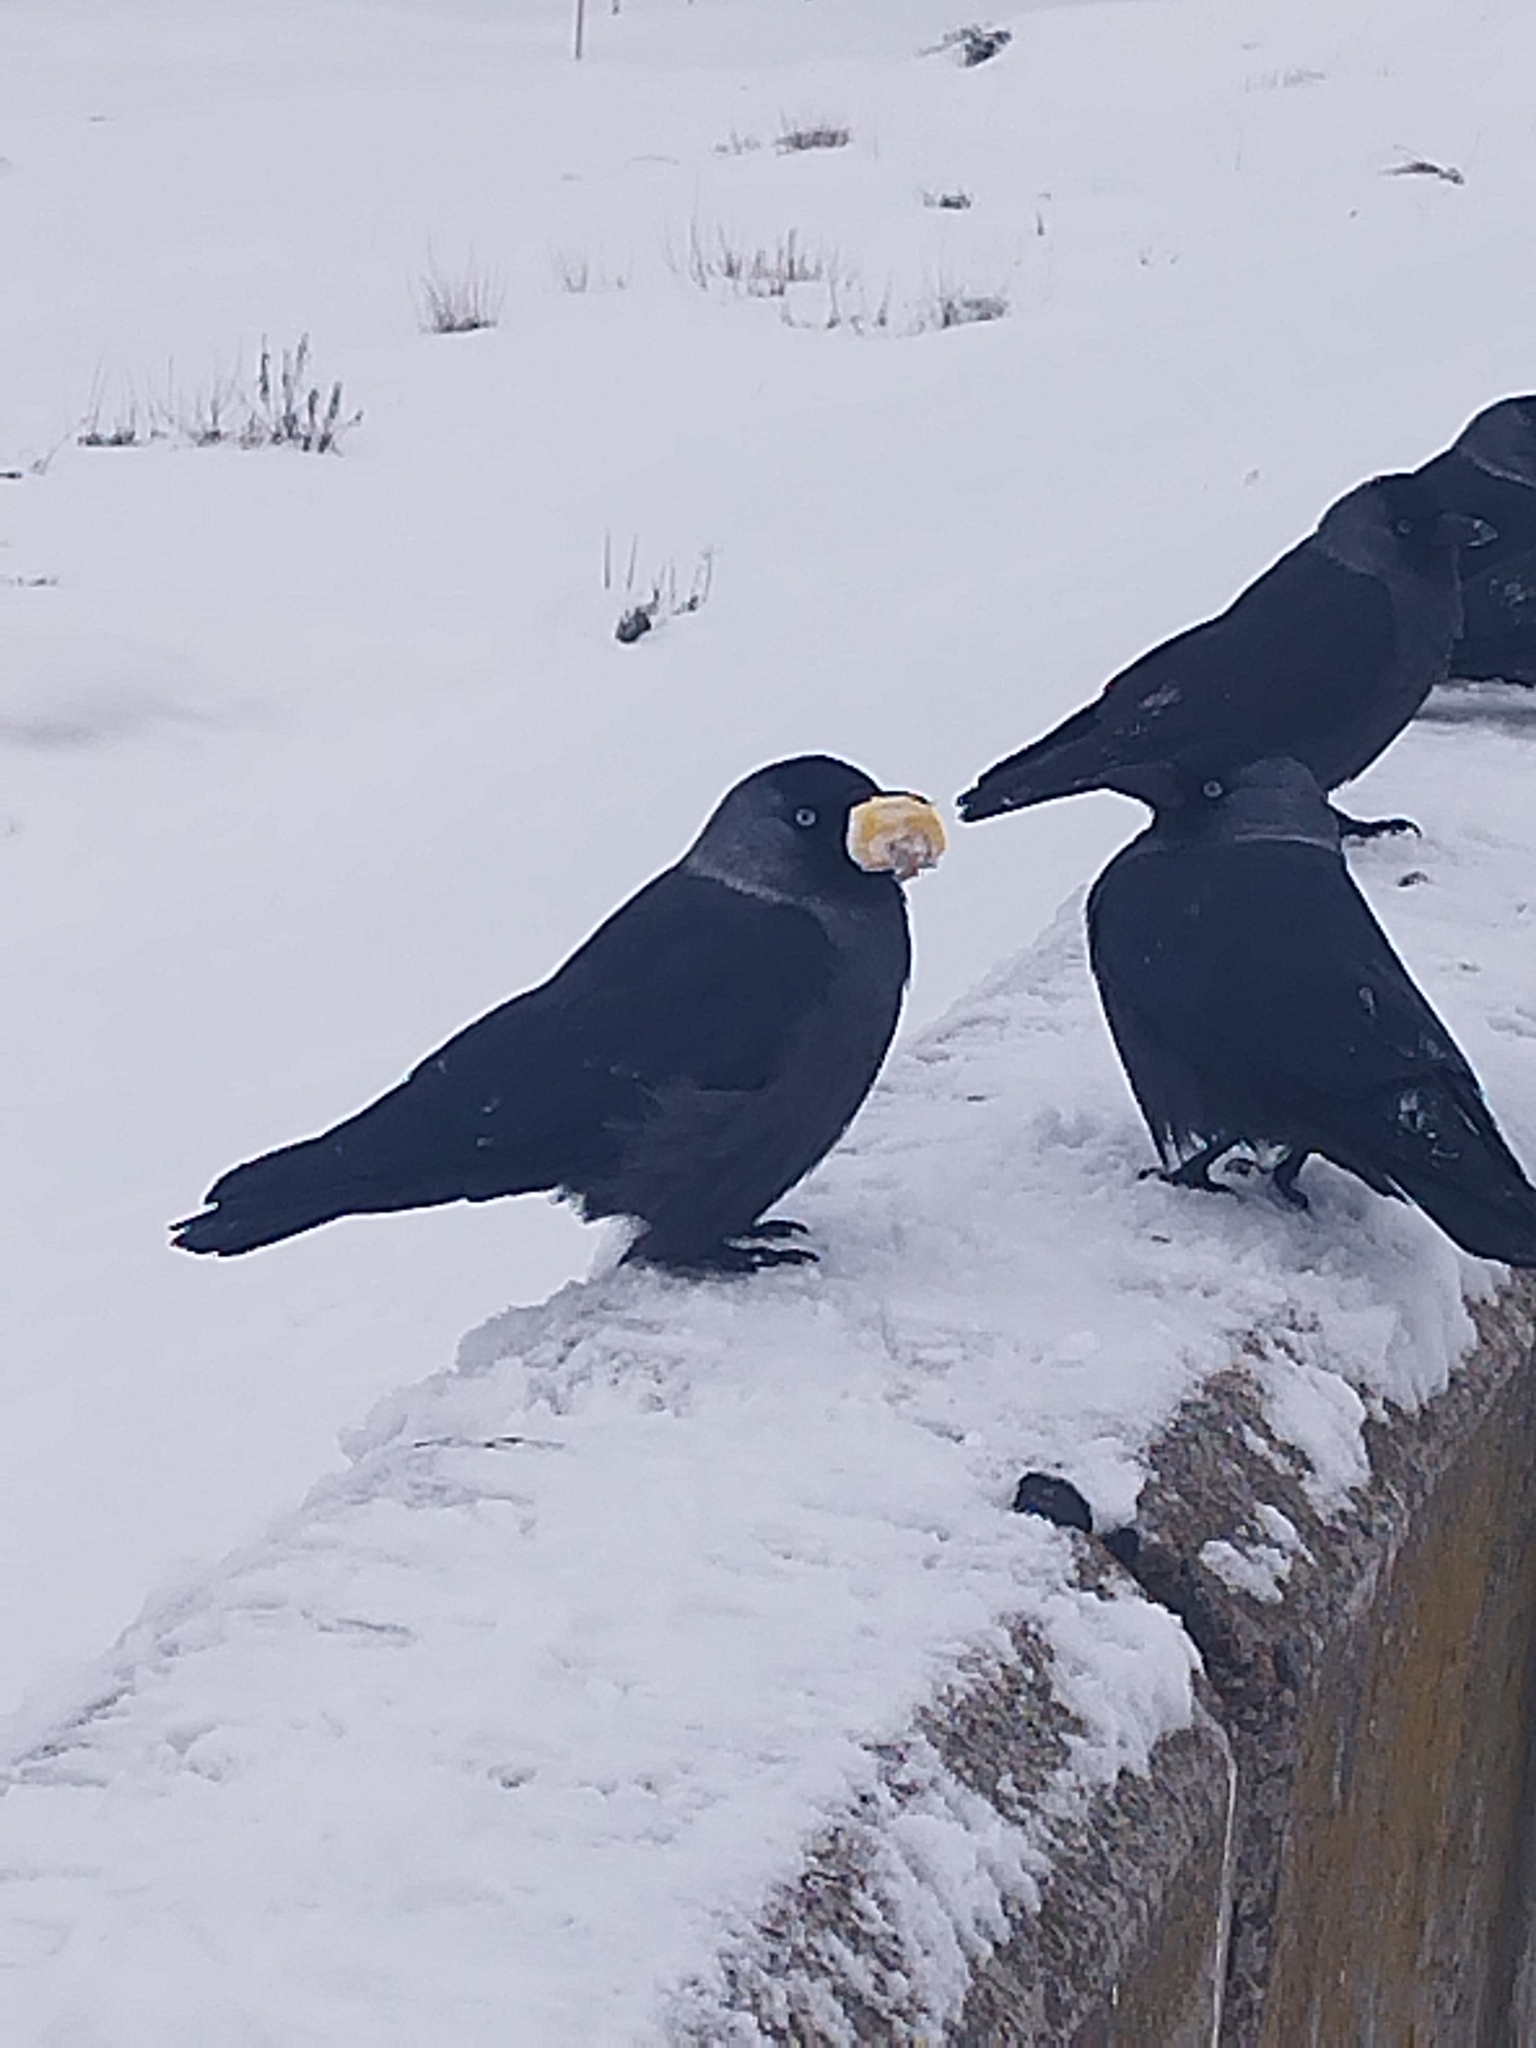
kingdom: Animalia
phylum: Chordata
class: Aves
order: Passeriformes
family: Corvidae
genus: Coloeus
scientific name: Coloeus monedula
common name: Western jackdaw
